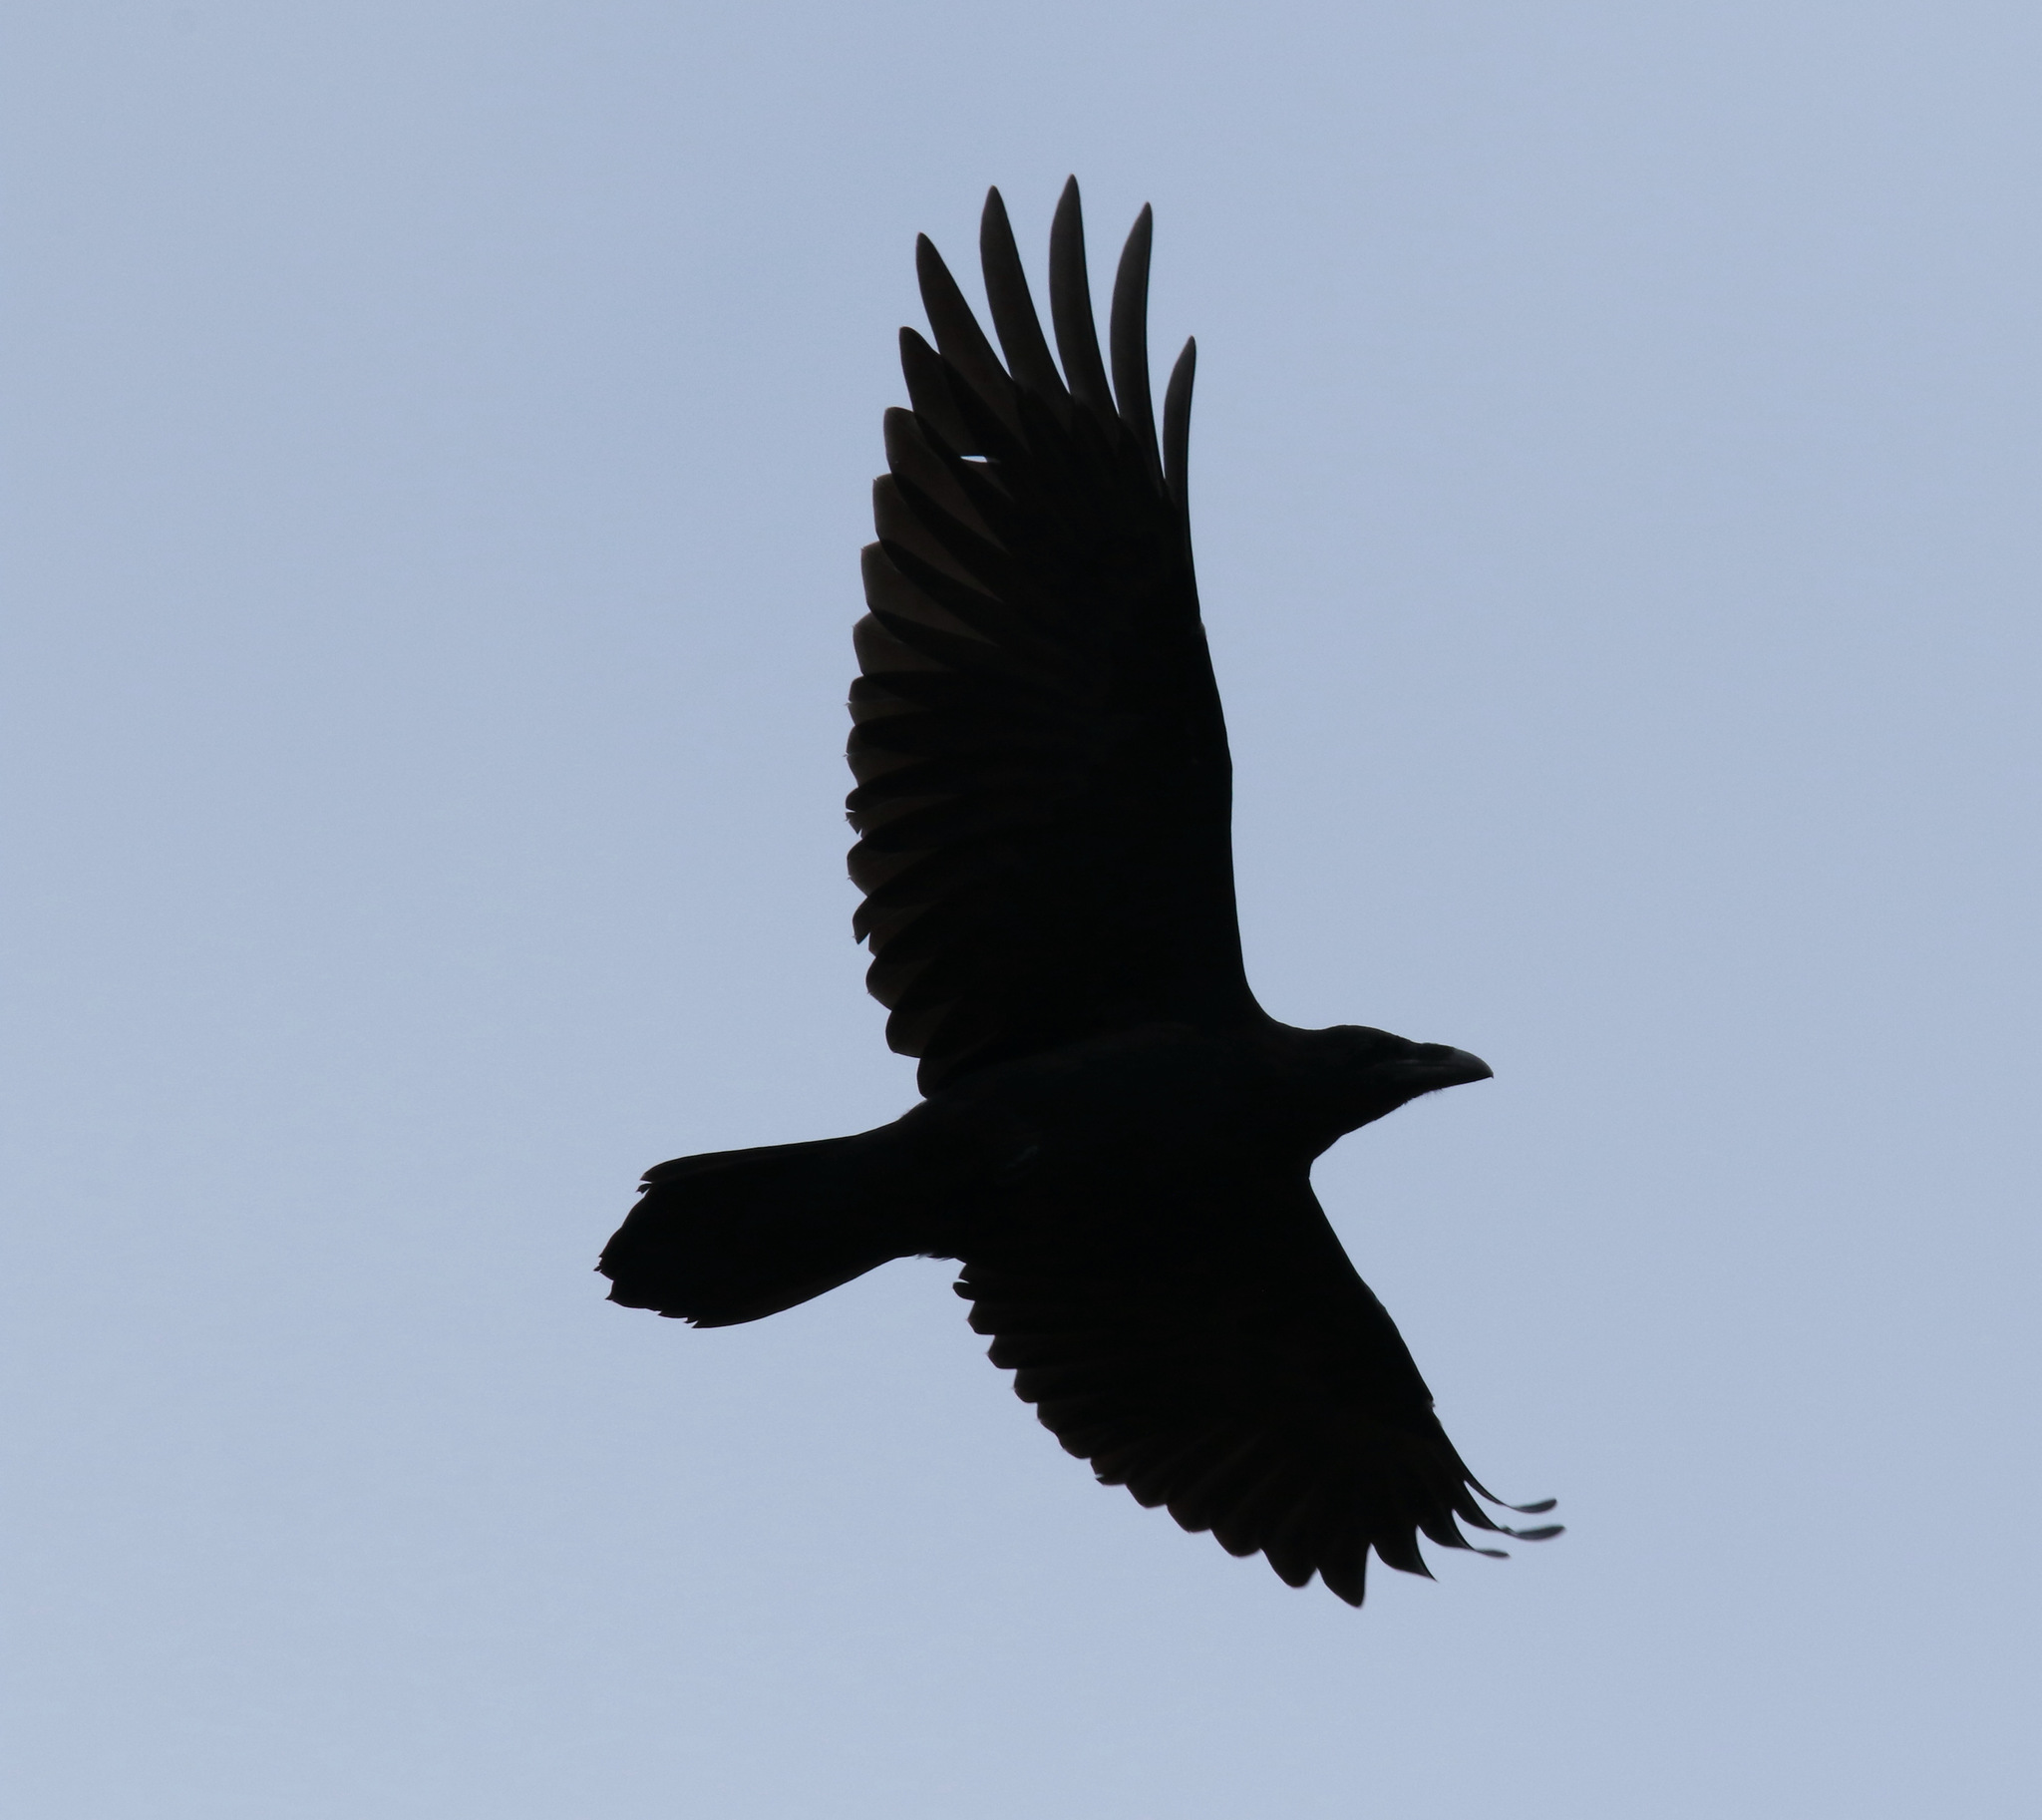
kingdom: Animalia
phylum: Chordata
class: Aves
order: Passeriformes
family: Corvidae
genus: Corvus
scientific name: Corvus corax
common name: Common raven
